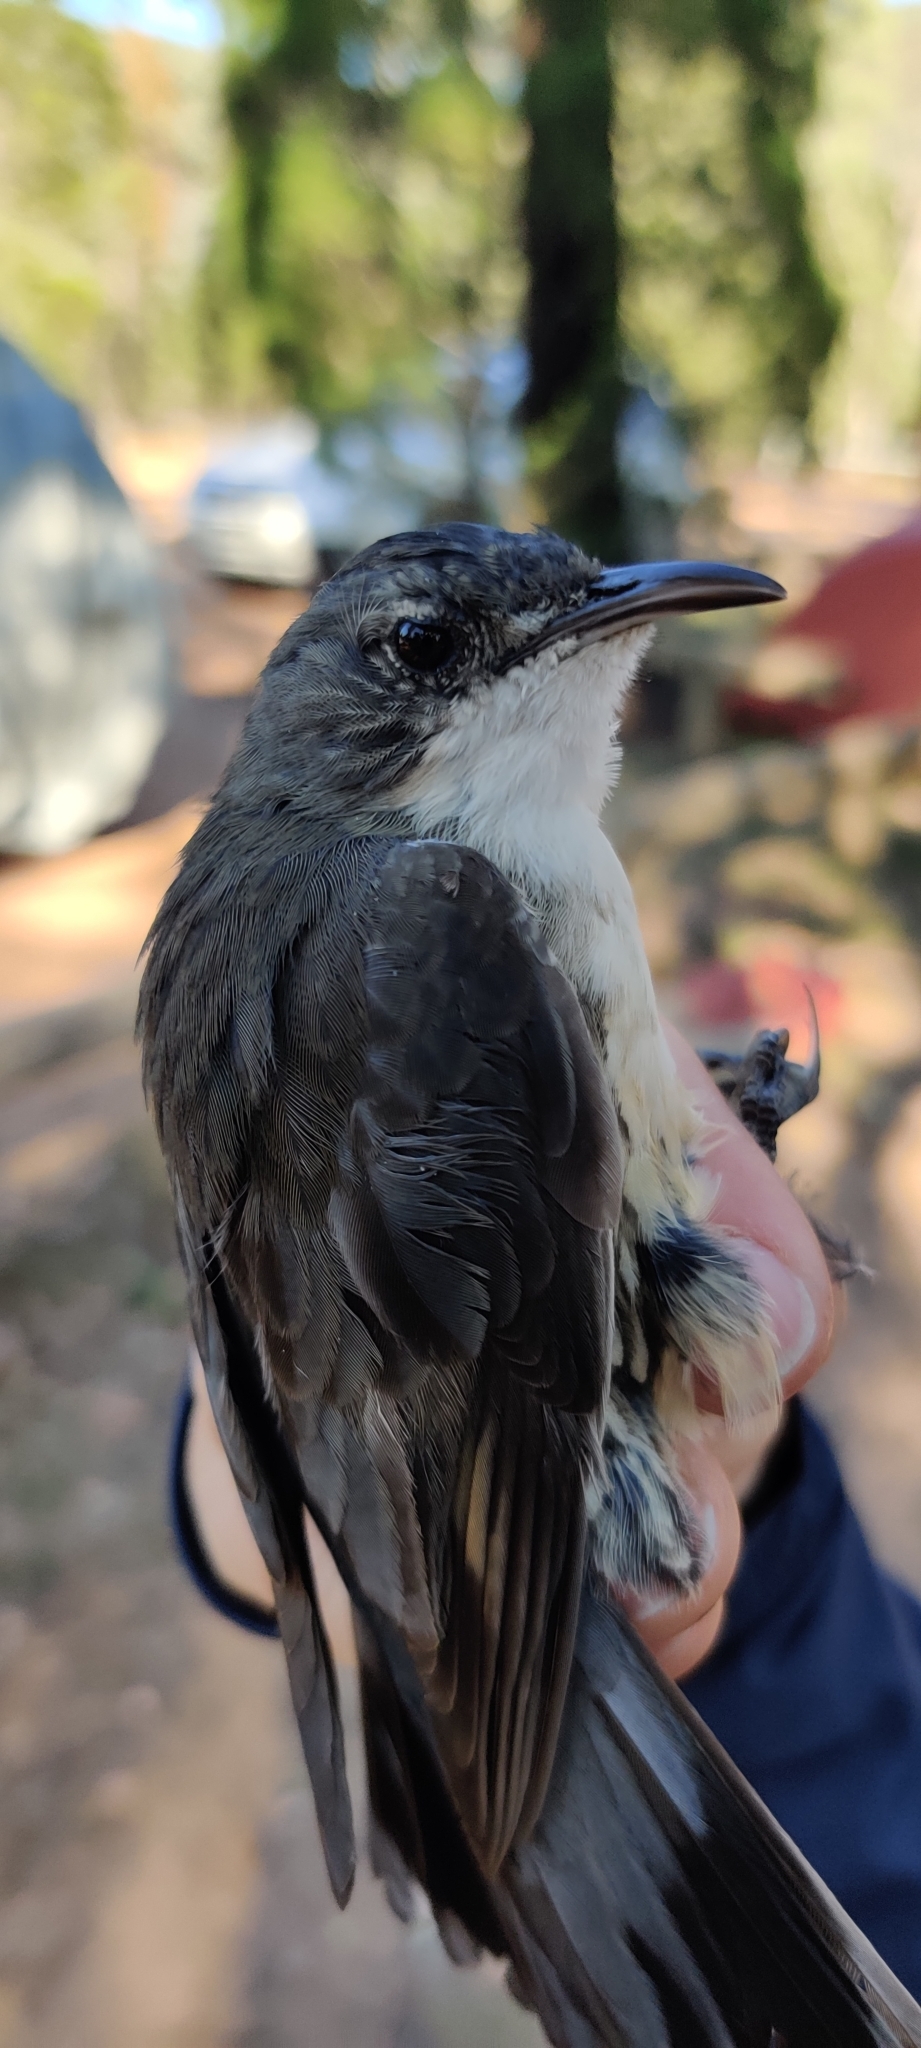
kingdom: Animalia
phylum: Chordata
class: Aves
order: Passeriformes
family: Climacteridae
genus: Cormobates
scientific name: Cormobates leucophaea
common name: White-throated treecreeper
